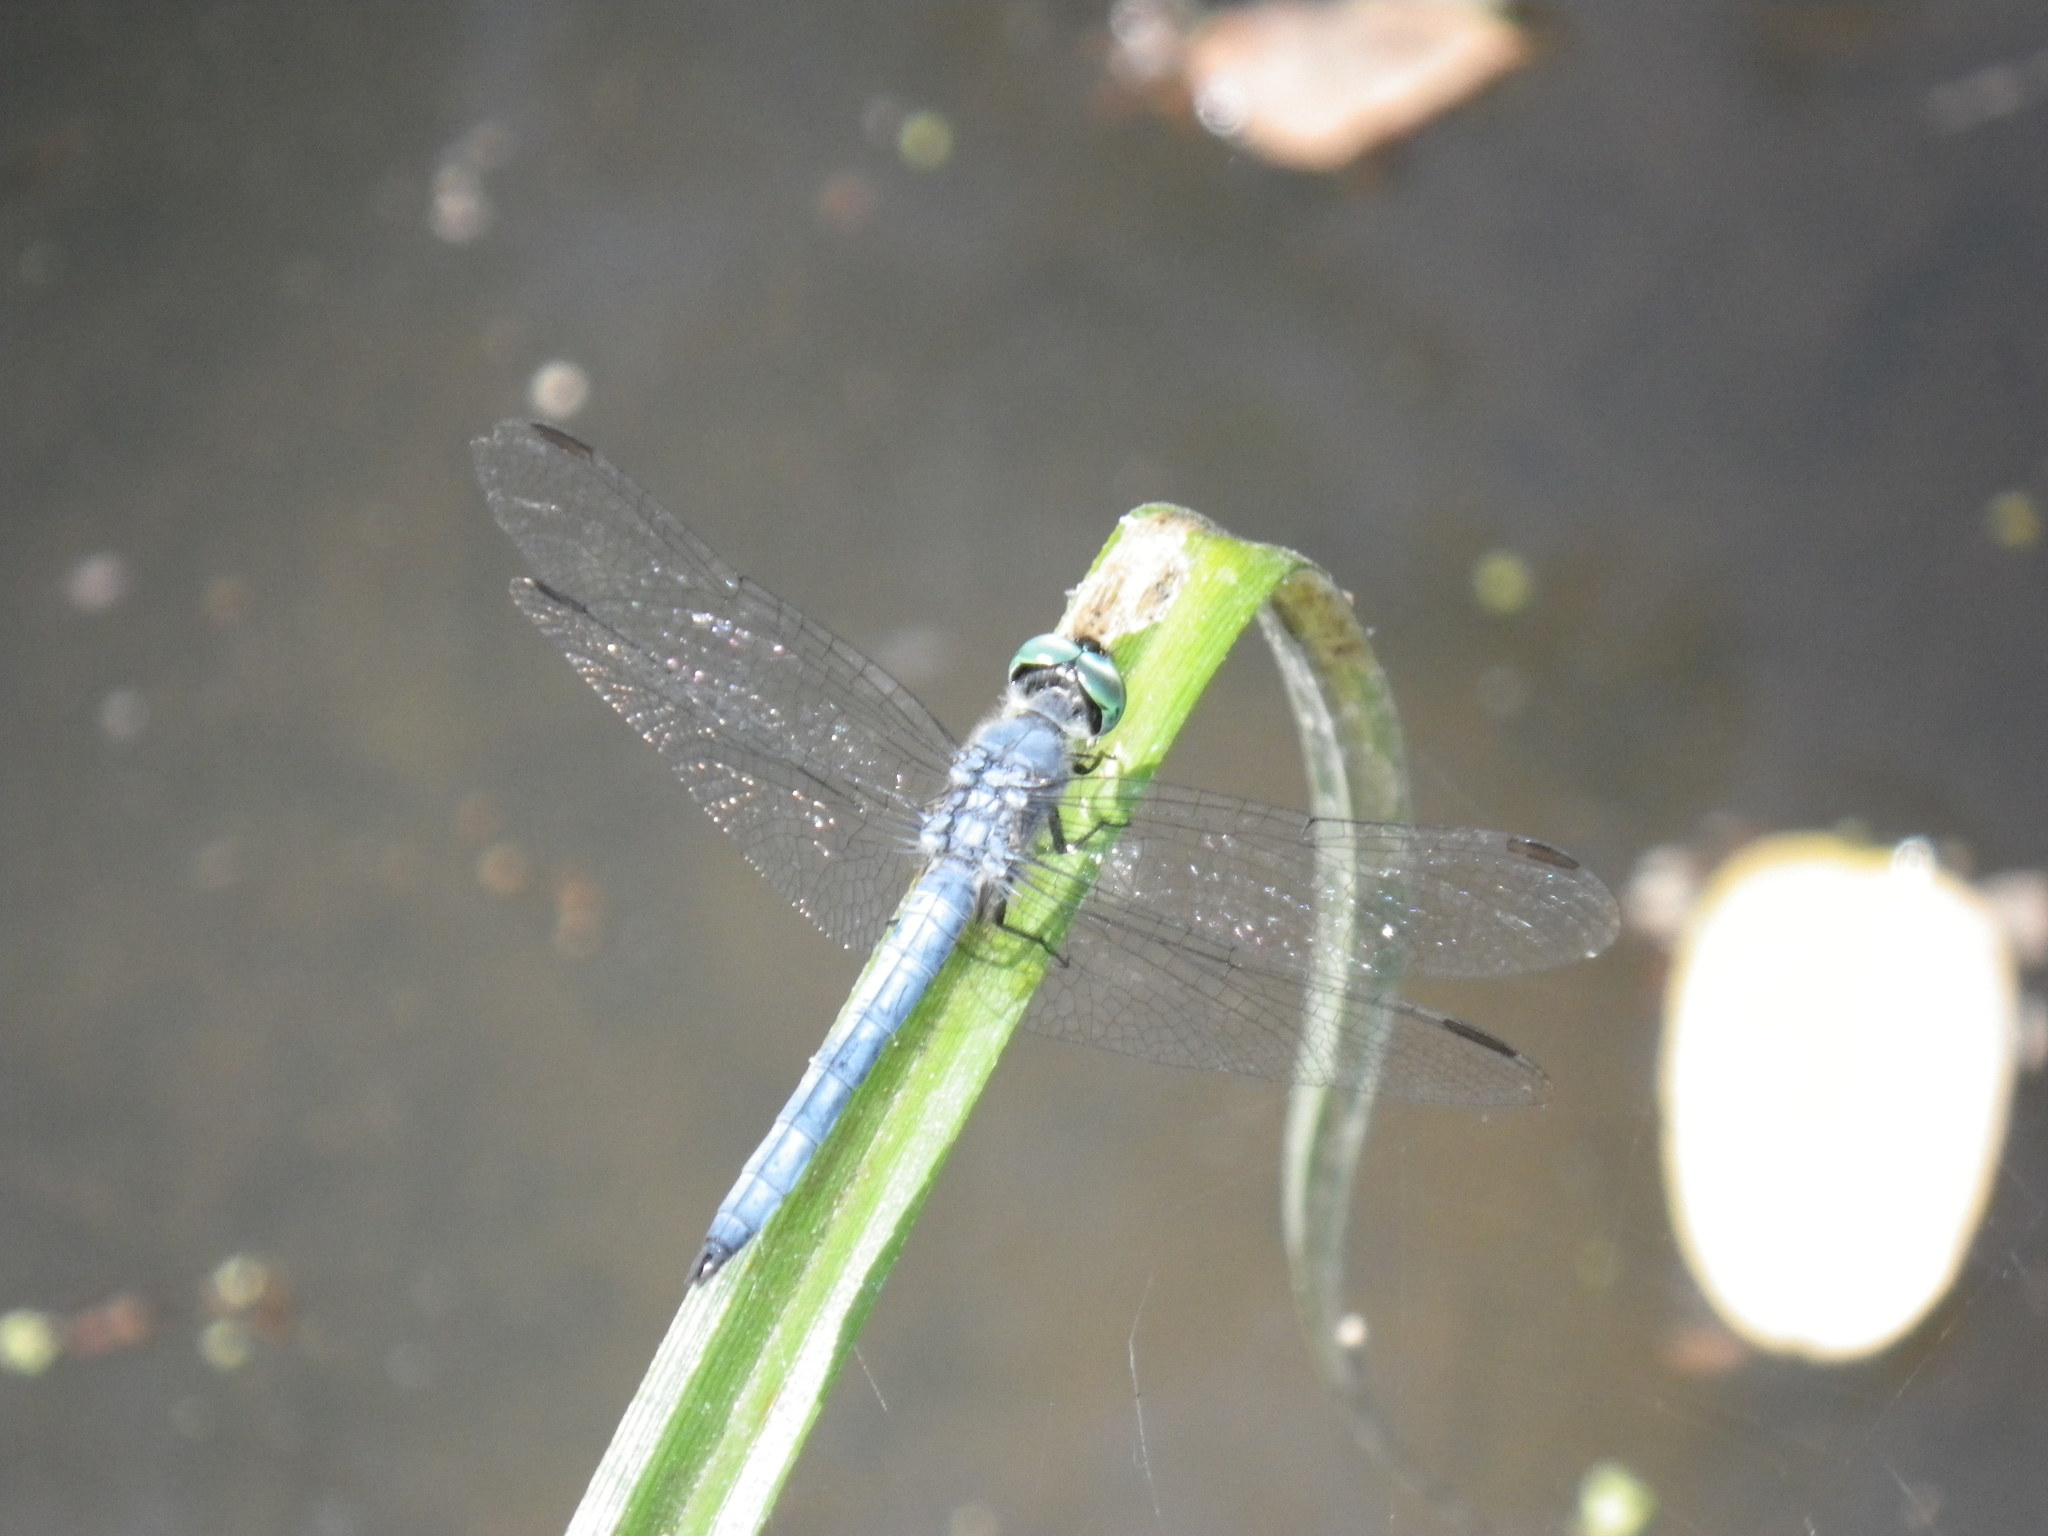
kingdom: Animalia
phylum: Arthropoda
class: Insecta
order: Odonata
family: Libellulidae
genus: Pachydiplax
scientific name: Pachydiplax longipennis
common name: Blue dasher
